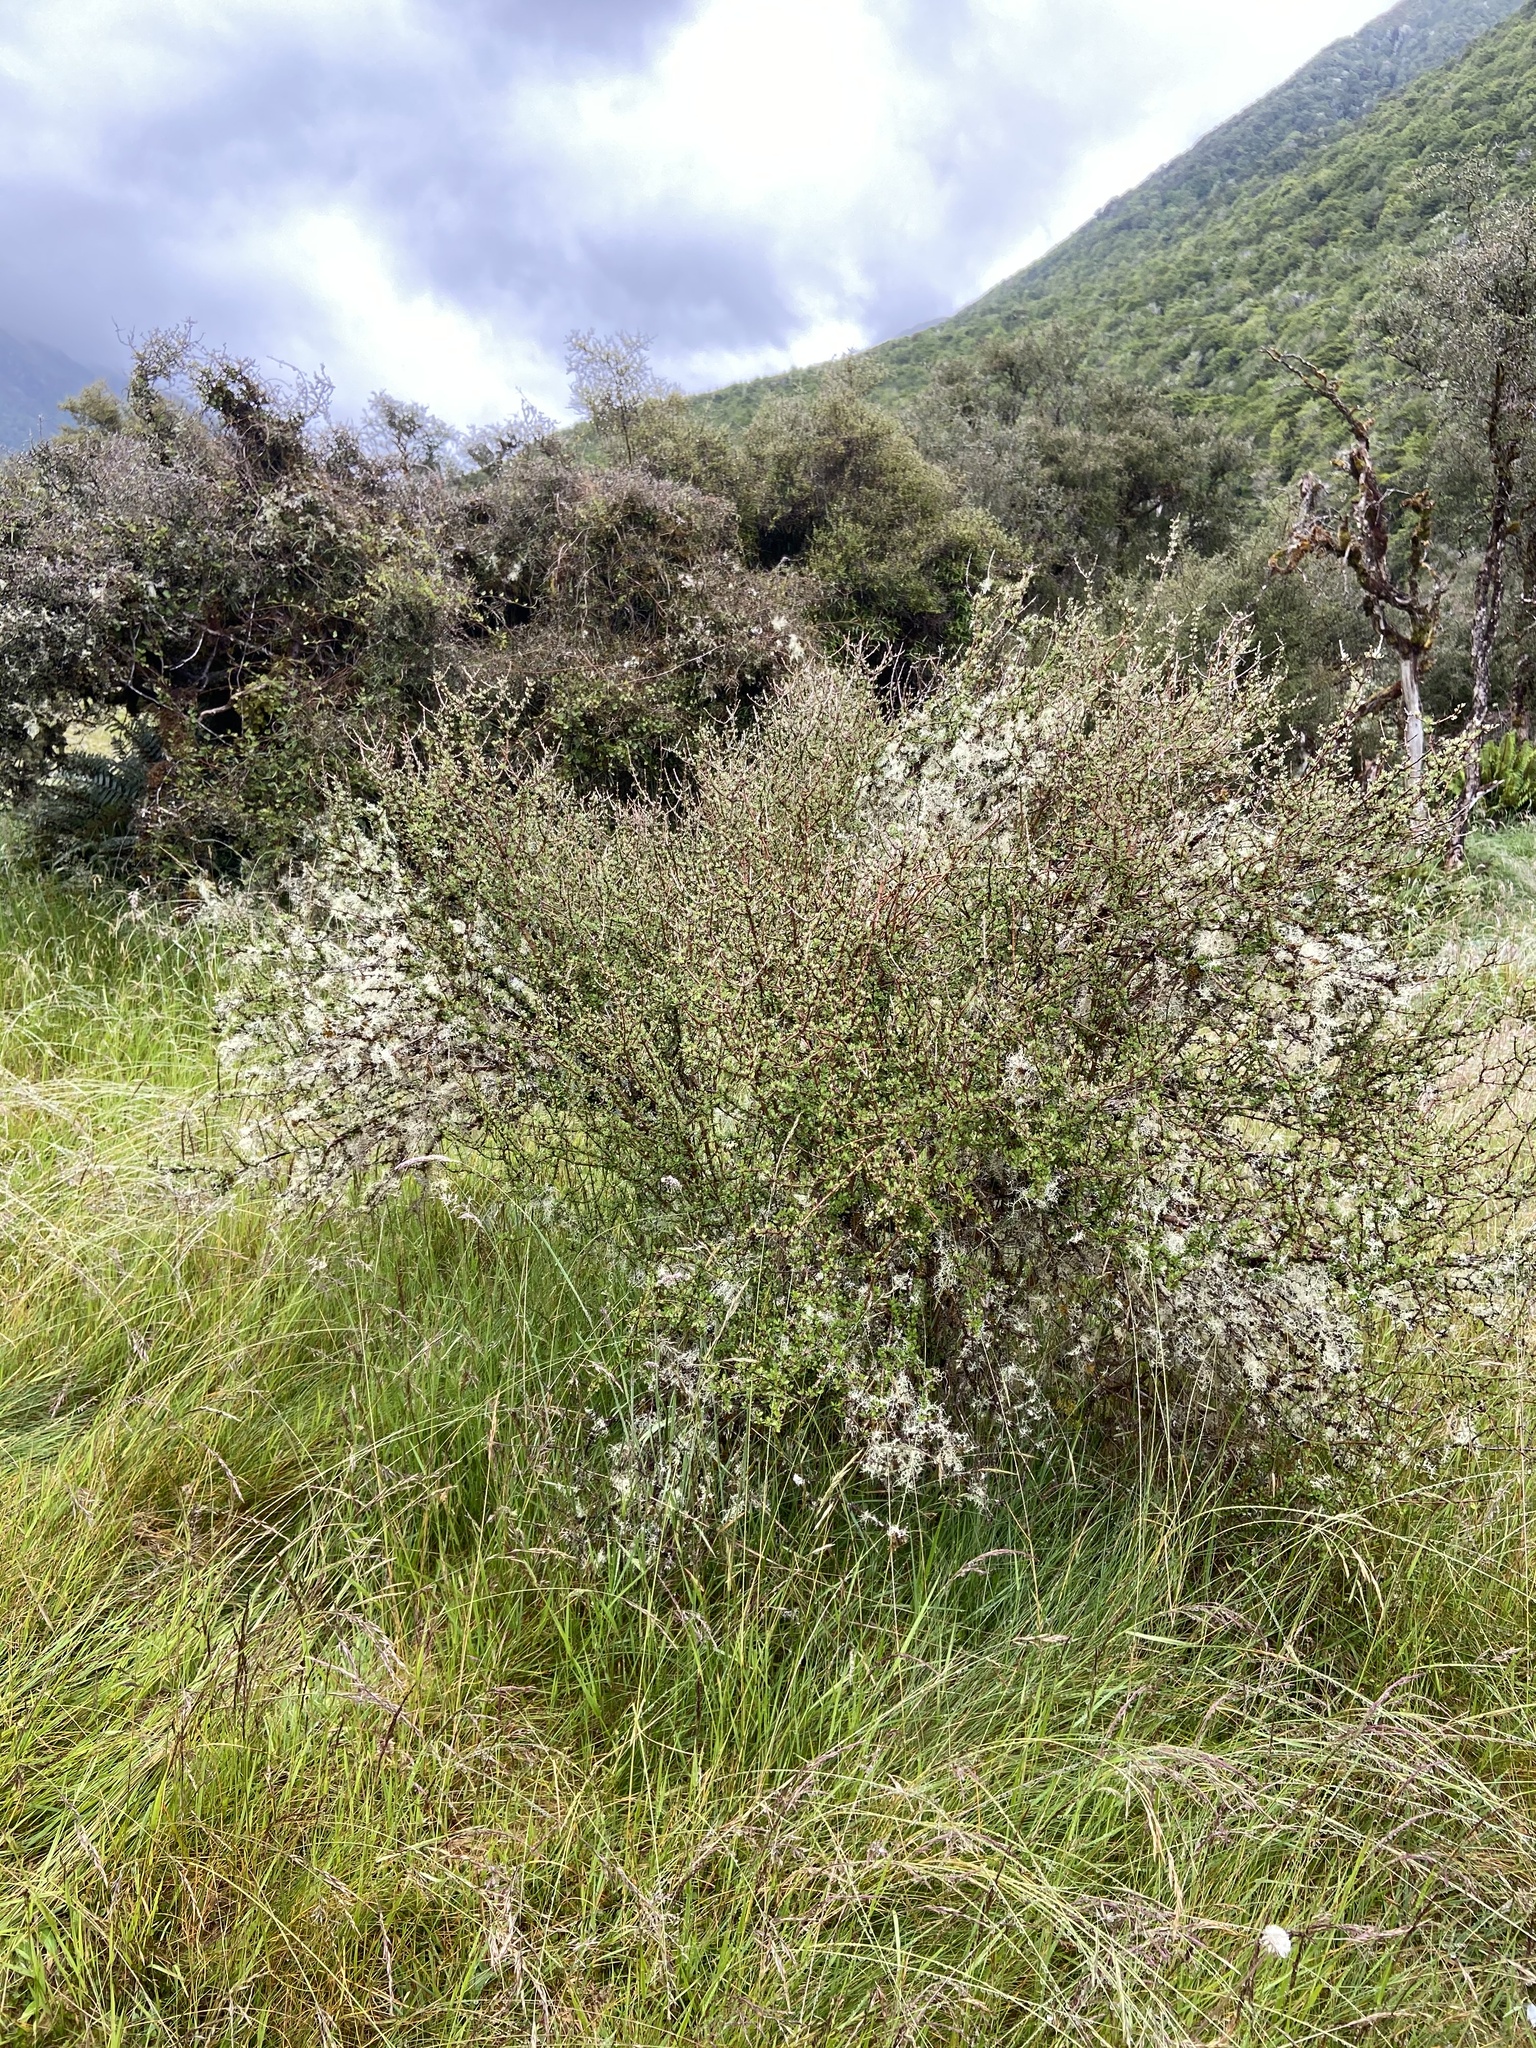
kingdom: Plantae
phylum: Tracheophyta
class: Magnoliopsida
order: Asterales
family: Asteraceae
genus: Olearia
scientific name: Olearia virgata
